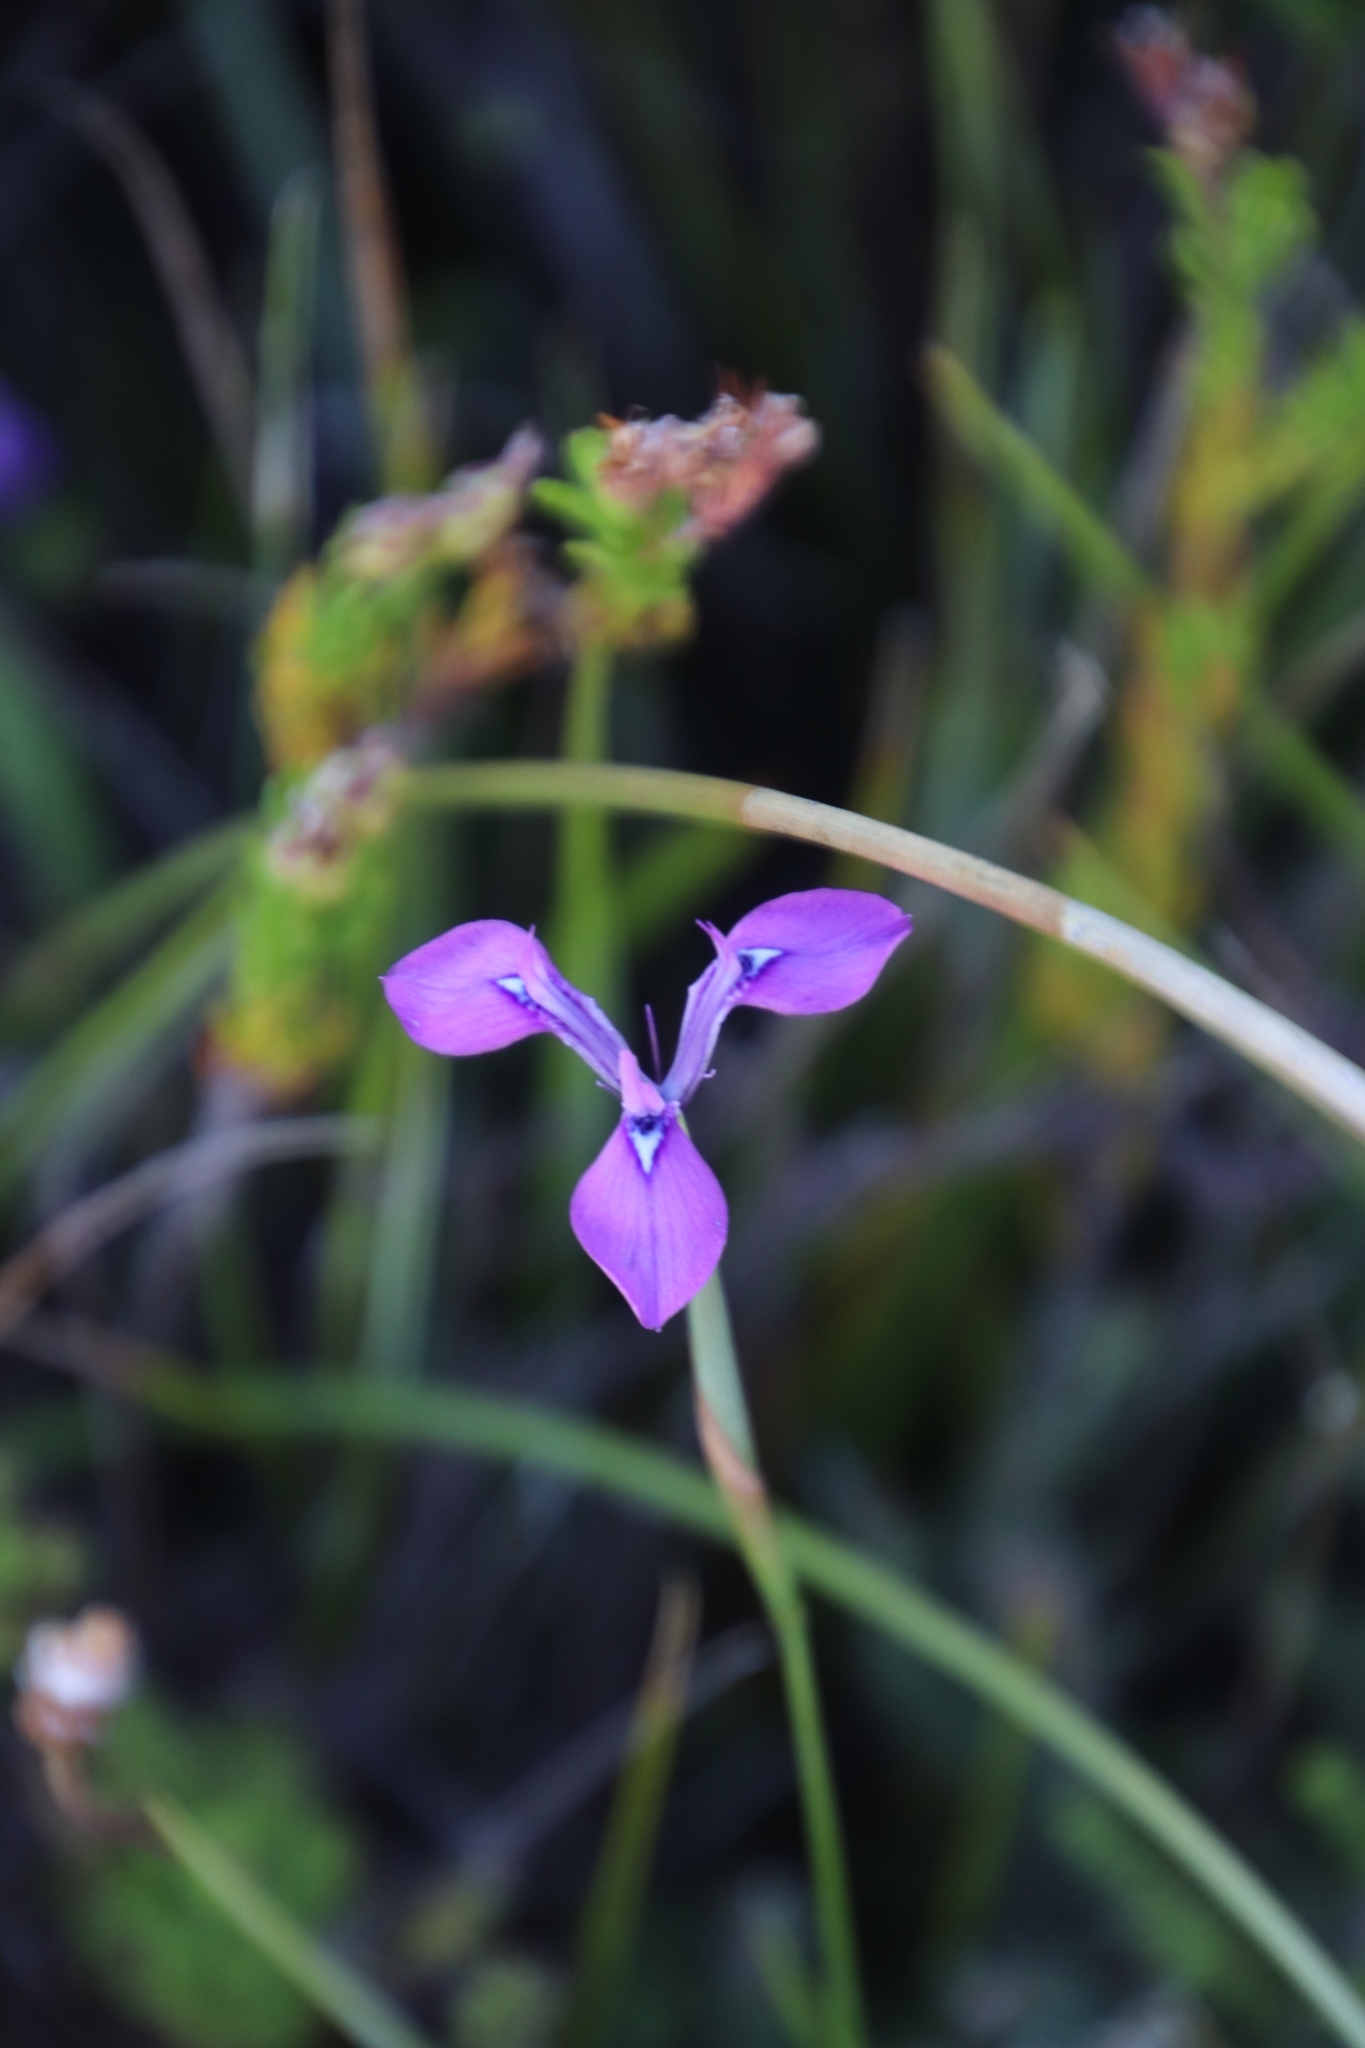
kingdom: Plantae
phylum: Tracheophyta
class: Liliopsida
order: Asparagales
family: Iridaceae
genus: Moraea
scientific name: Moraea tripetala
